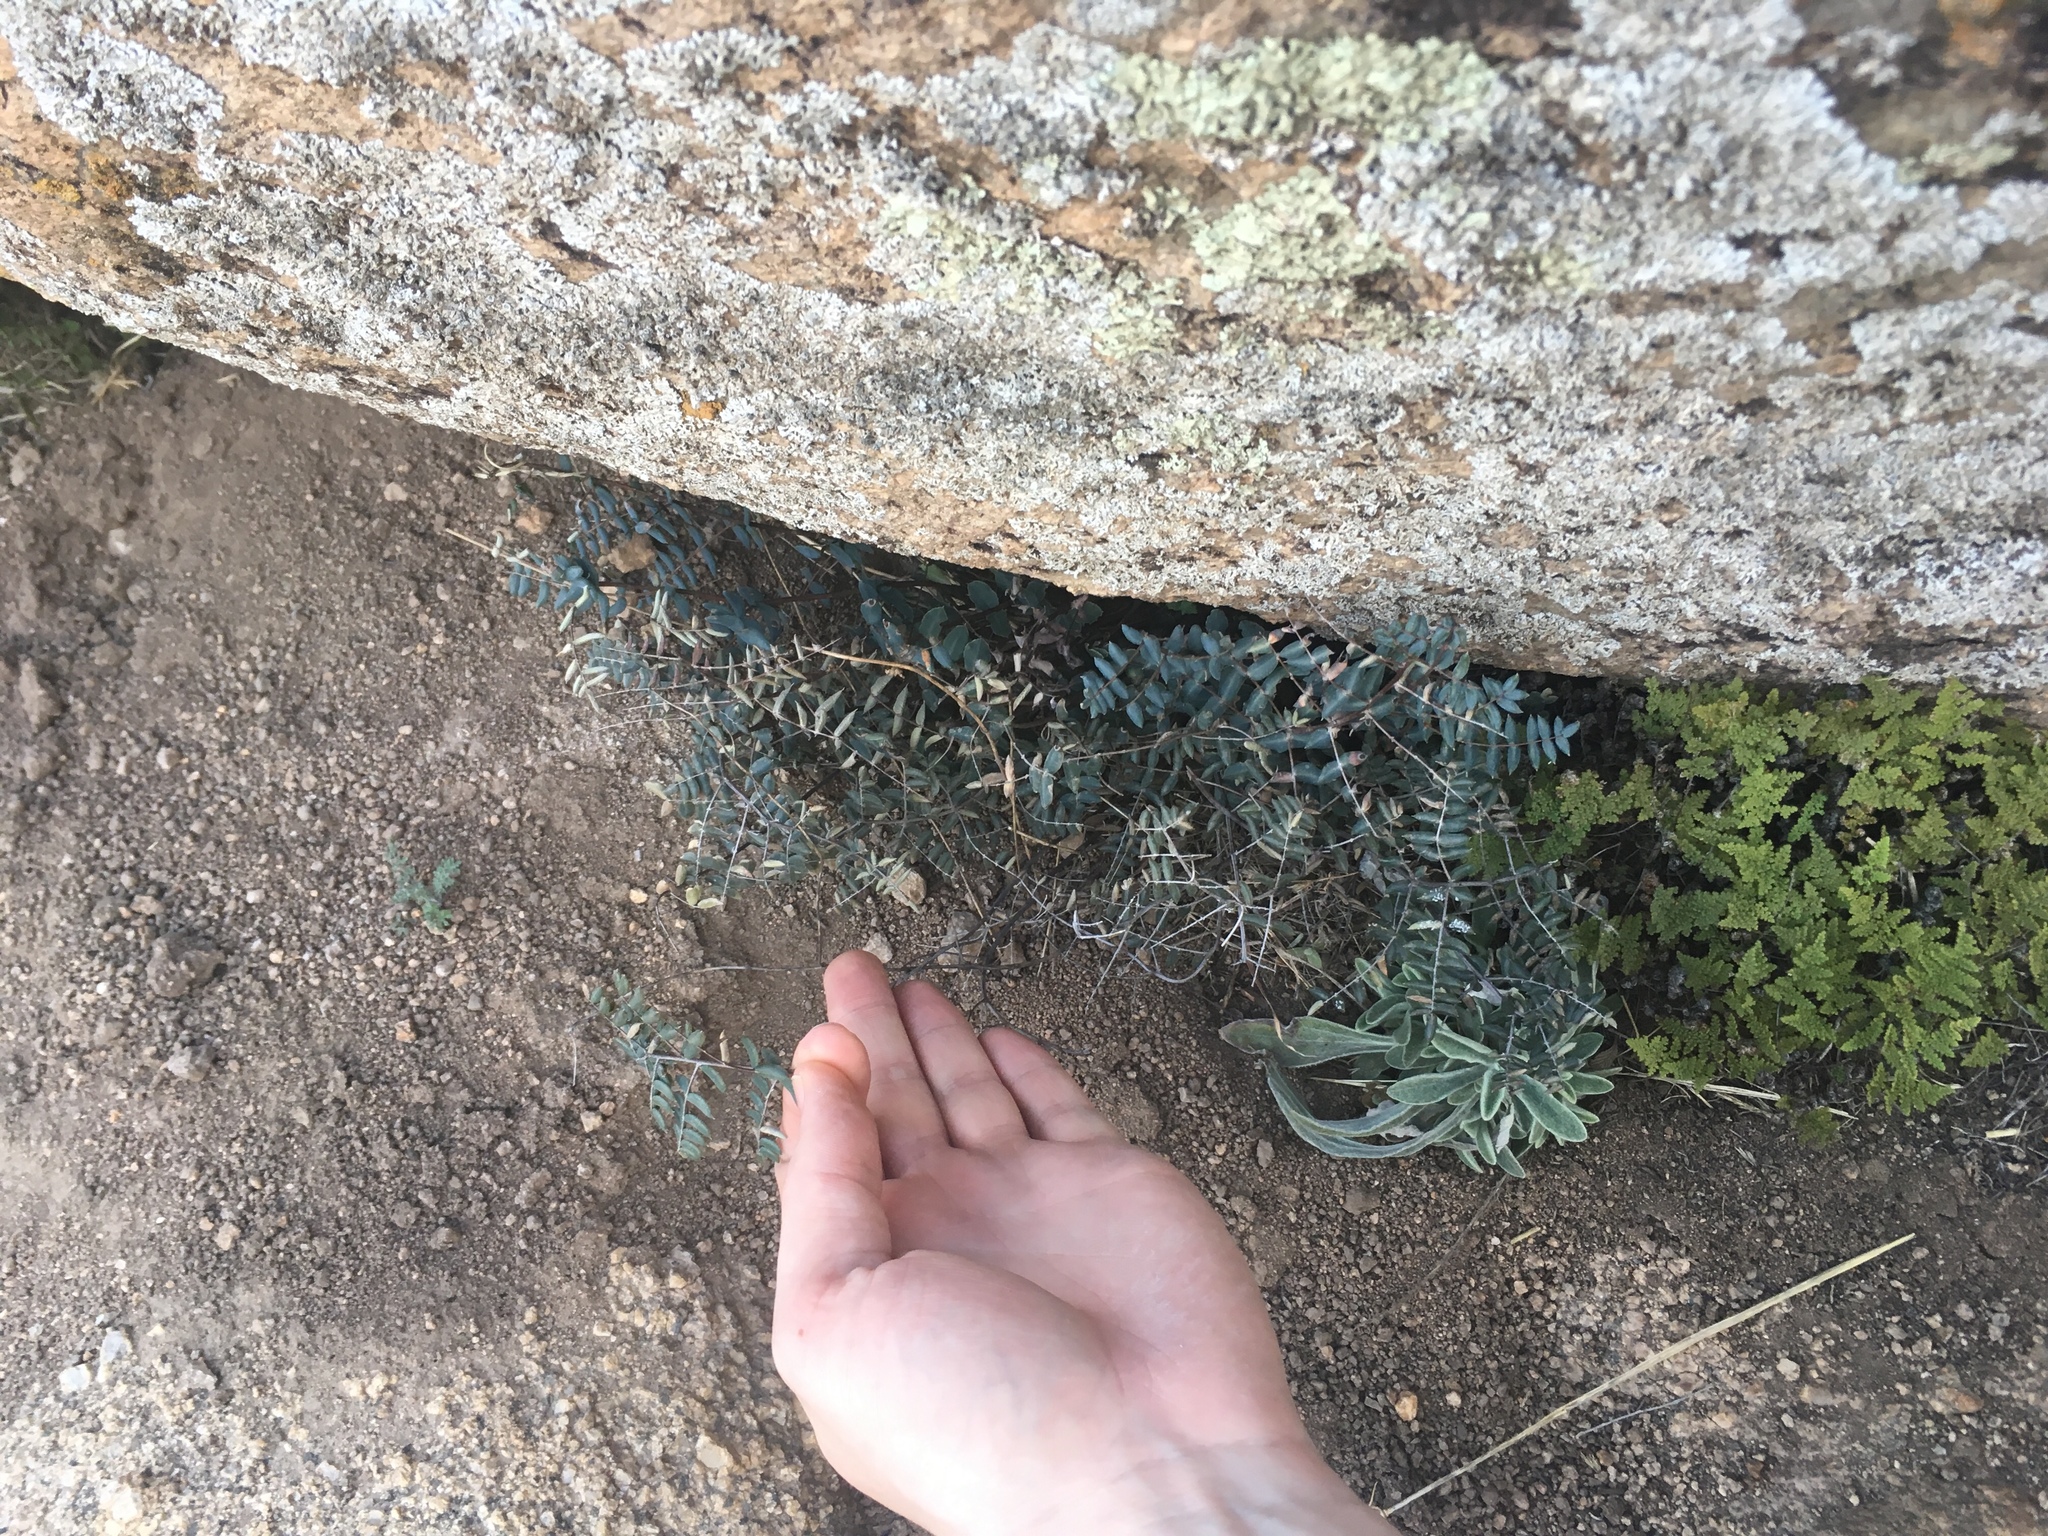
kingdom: Plantae
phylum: Tracheophyta
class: Polypodiopsida
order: Polypodiales
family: Pteridaceae
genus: Pellaea
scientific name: Pellaea truncata
